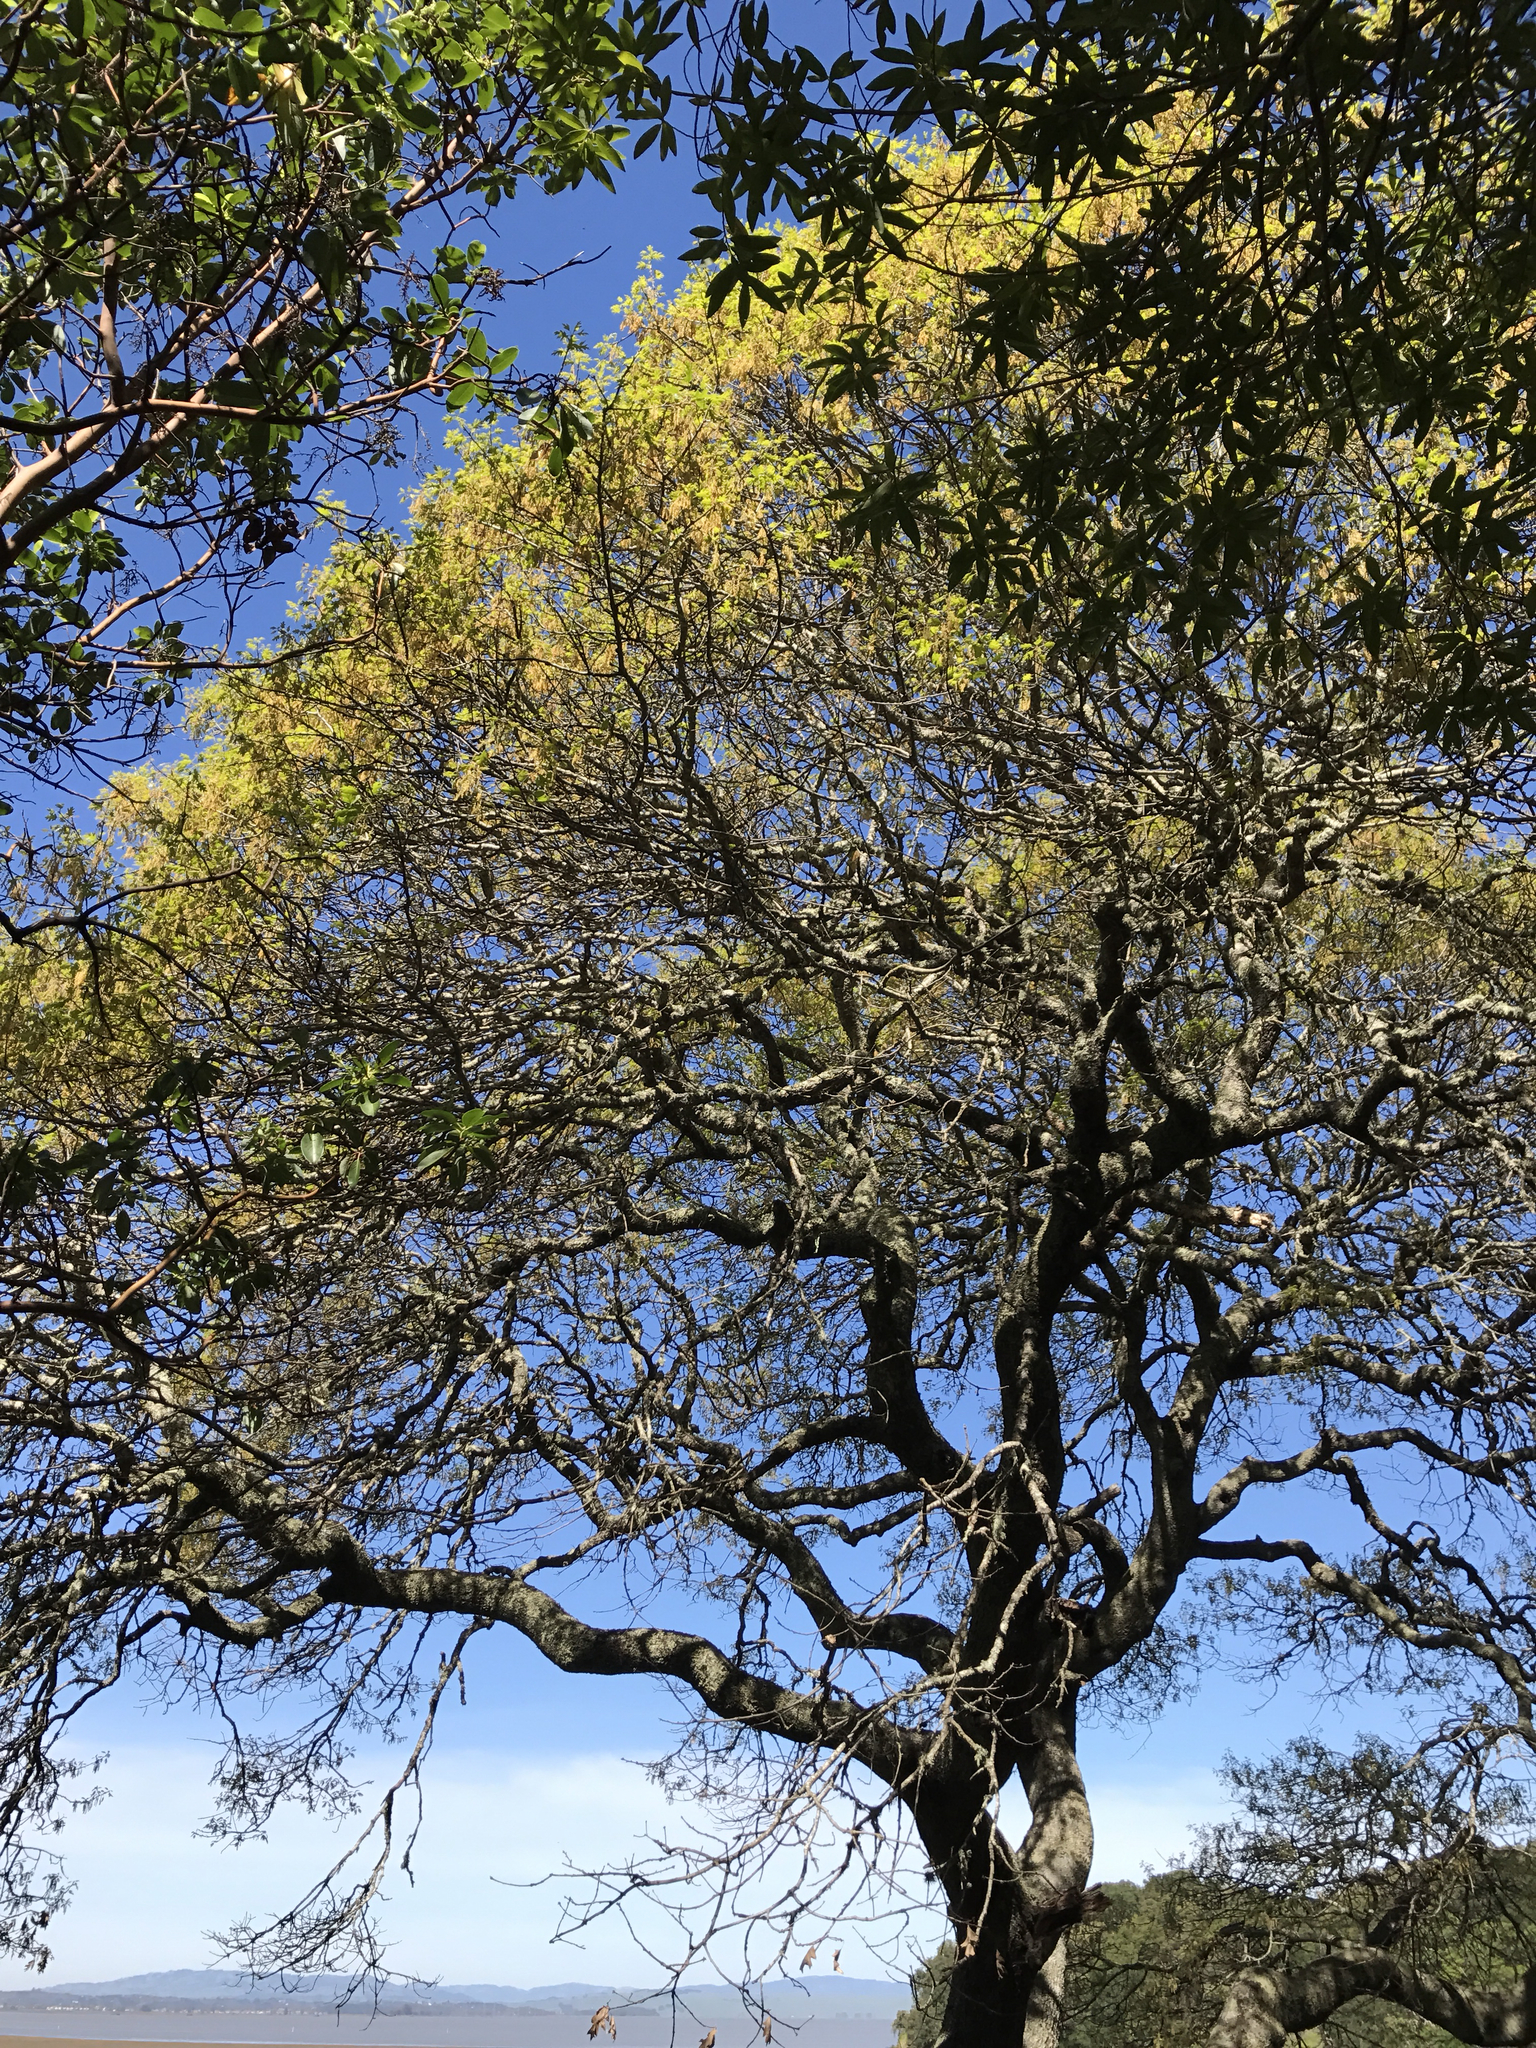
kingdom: Plantae
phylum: Tracheophyta
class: Magnoliopsida
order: Fagales
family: Fagaceae
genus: Quercus
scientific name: Quercus kelloggii
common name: California black oak
